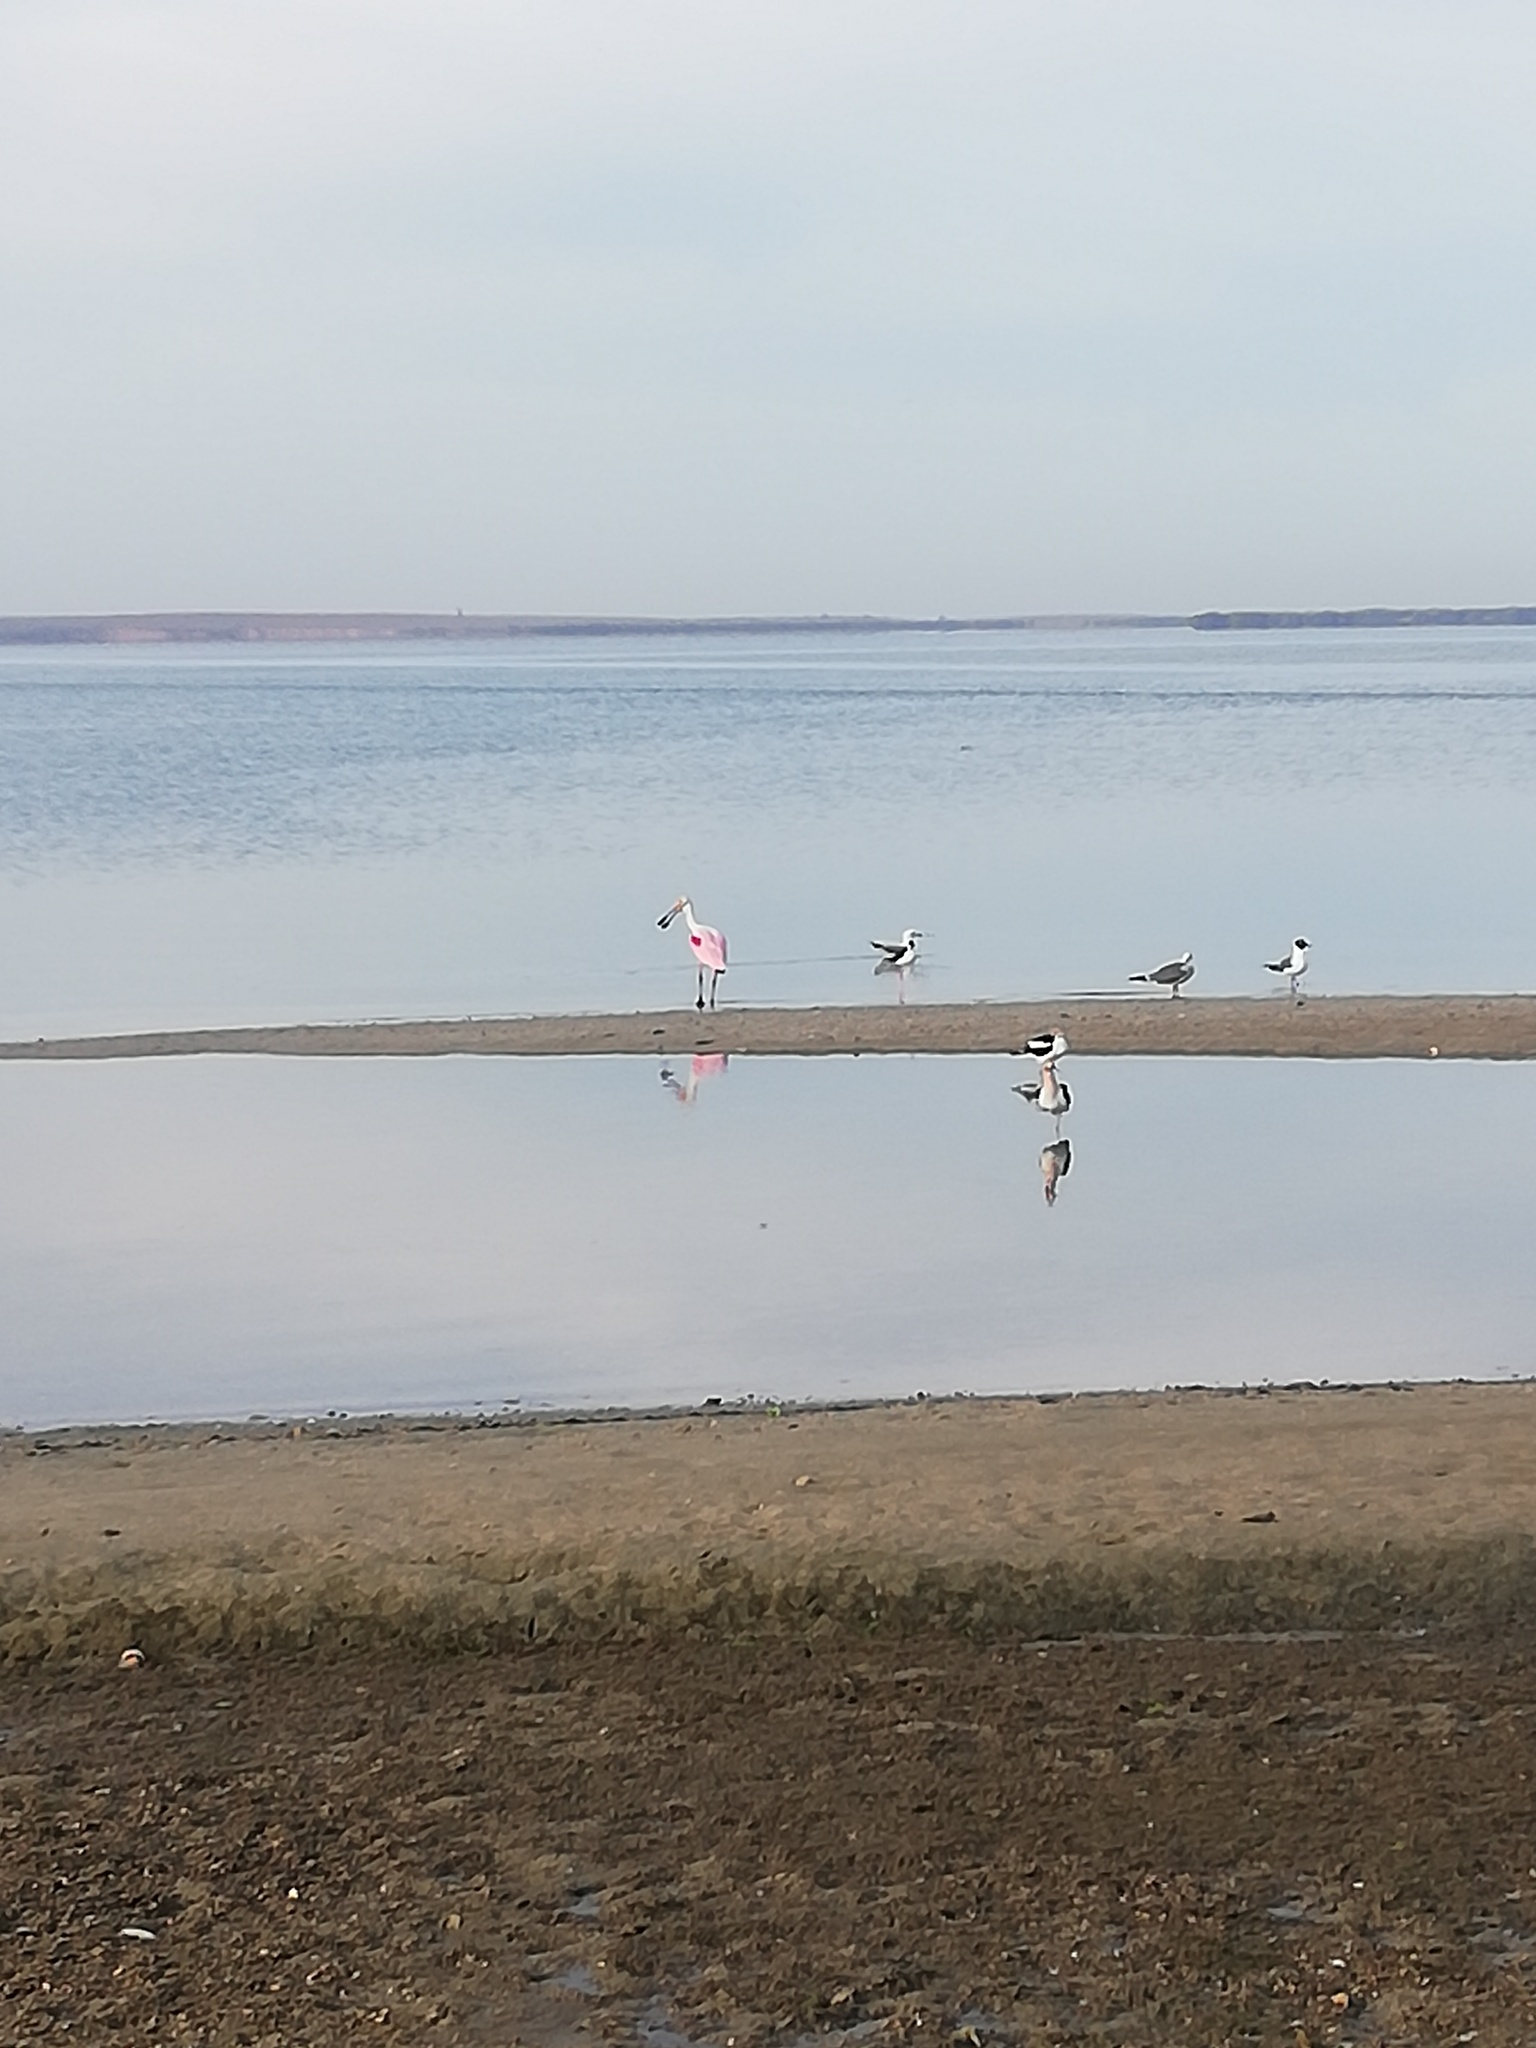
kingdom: Animalia
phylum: Chordata
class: Aves
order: Pelecaniformes
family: Threskiornithidae
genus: Platalea
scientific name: Platalea ajaja
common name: Roseate spoonbill
